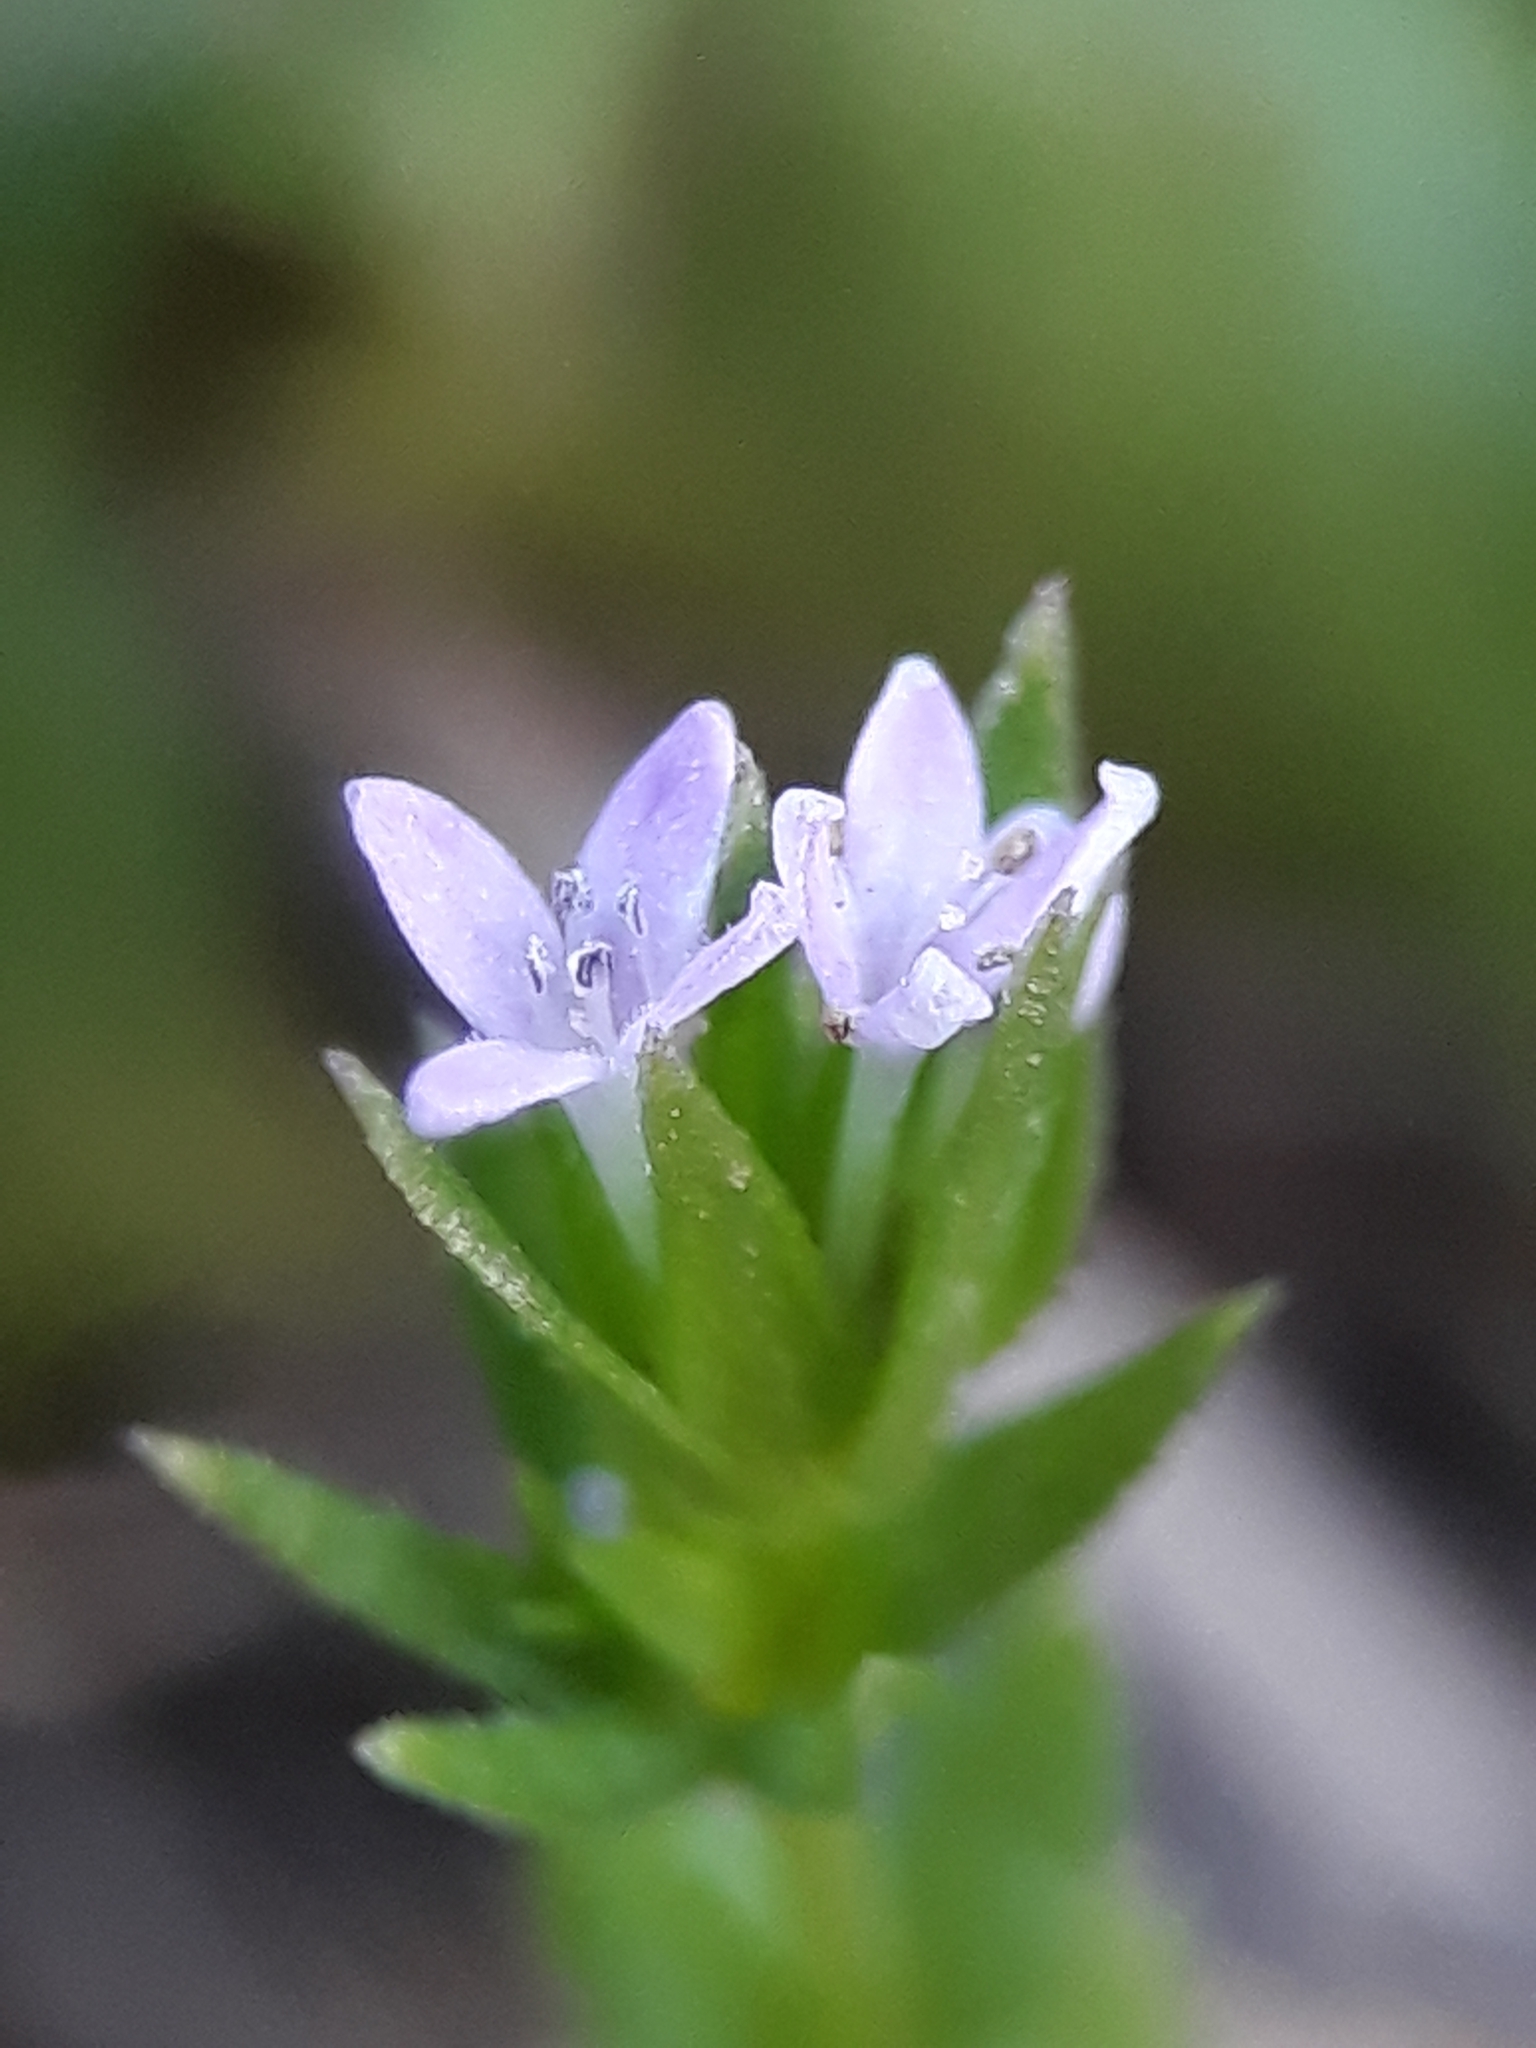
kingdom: Plantae
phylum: Tracheophyta
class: Magnoliopsida
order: Gentianales
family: Rubiaceae
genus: Sherardia
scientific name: Sherardia arvensis
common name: Field madder
